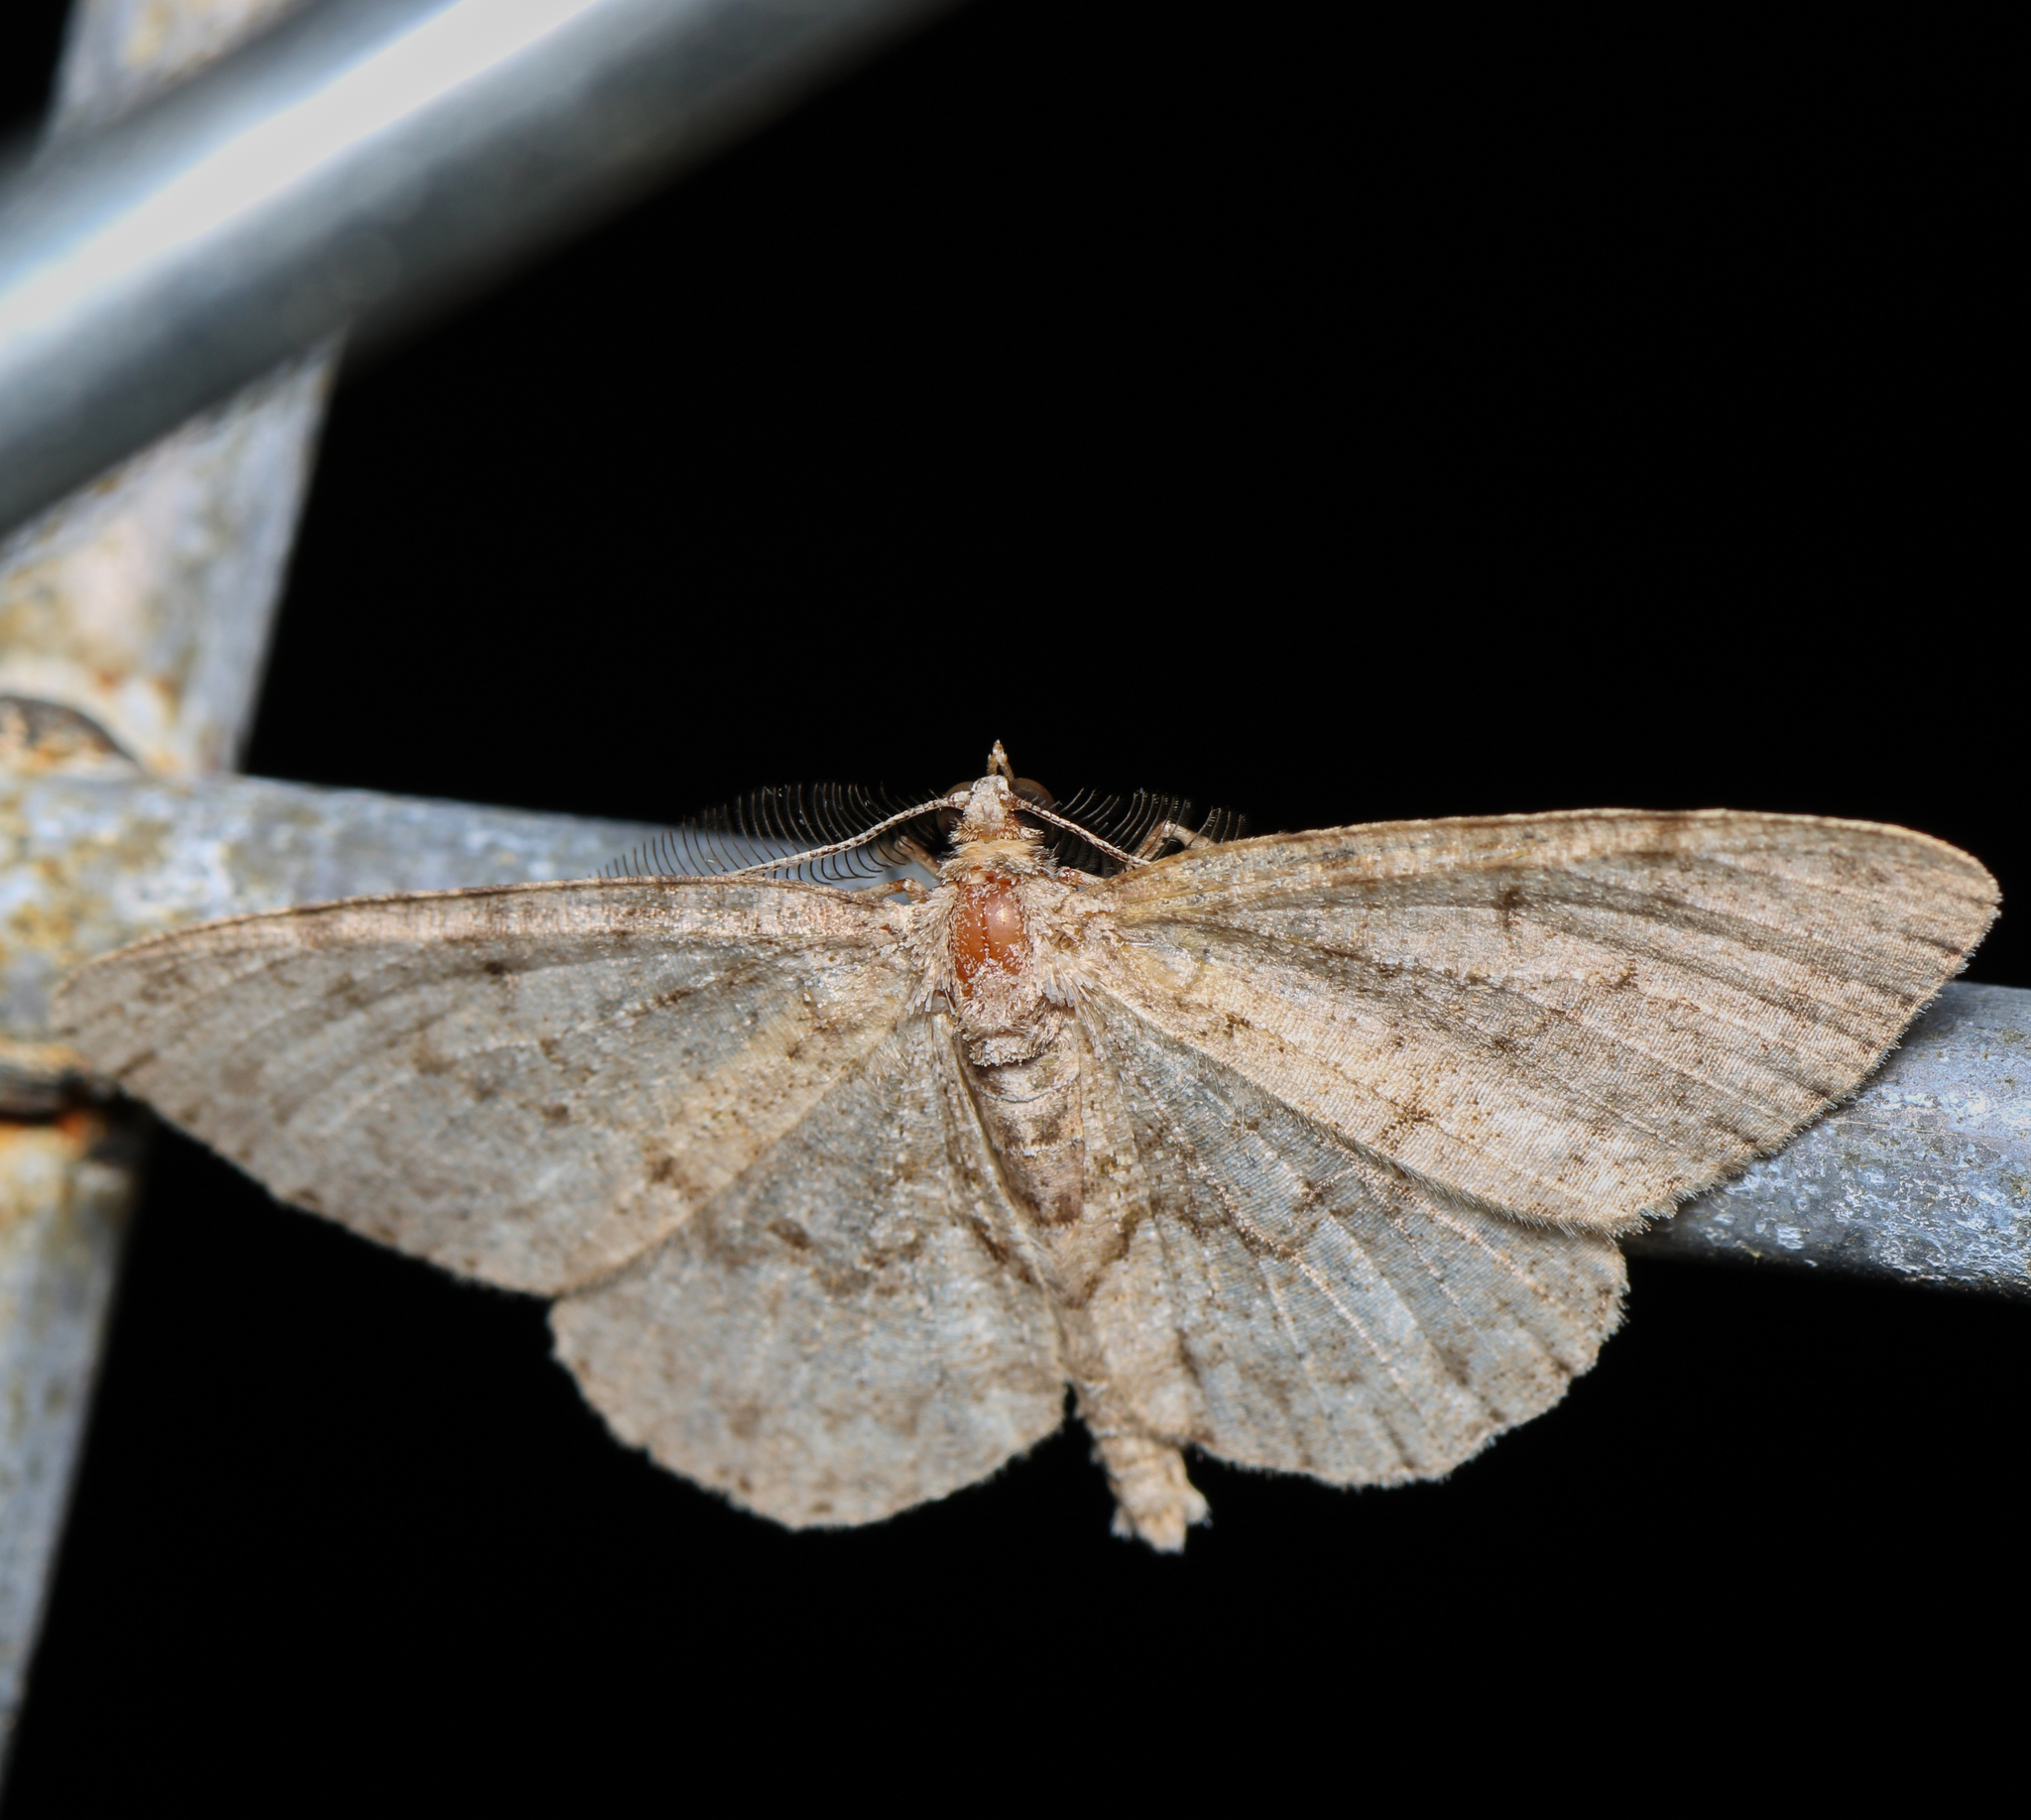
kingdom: Animalia
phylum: Arthropoda
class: Insecta
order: Lepidoptera
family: Geometridae
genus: Protoboarmia
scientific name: Protoboarmia porcelaria
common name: Porcelain gray
